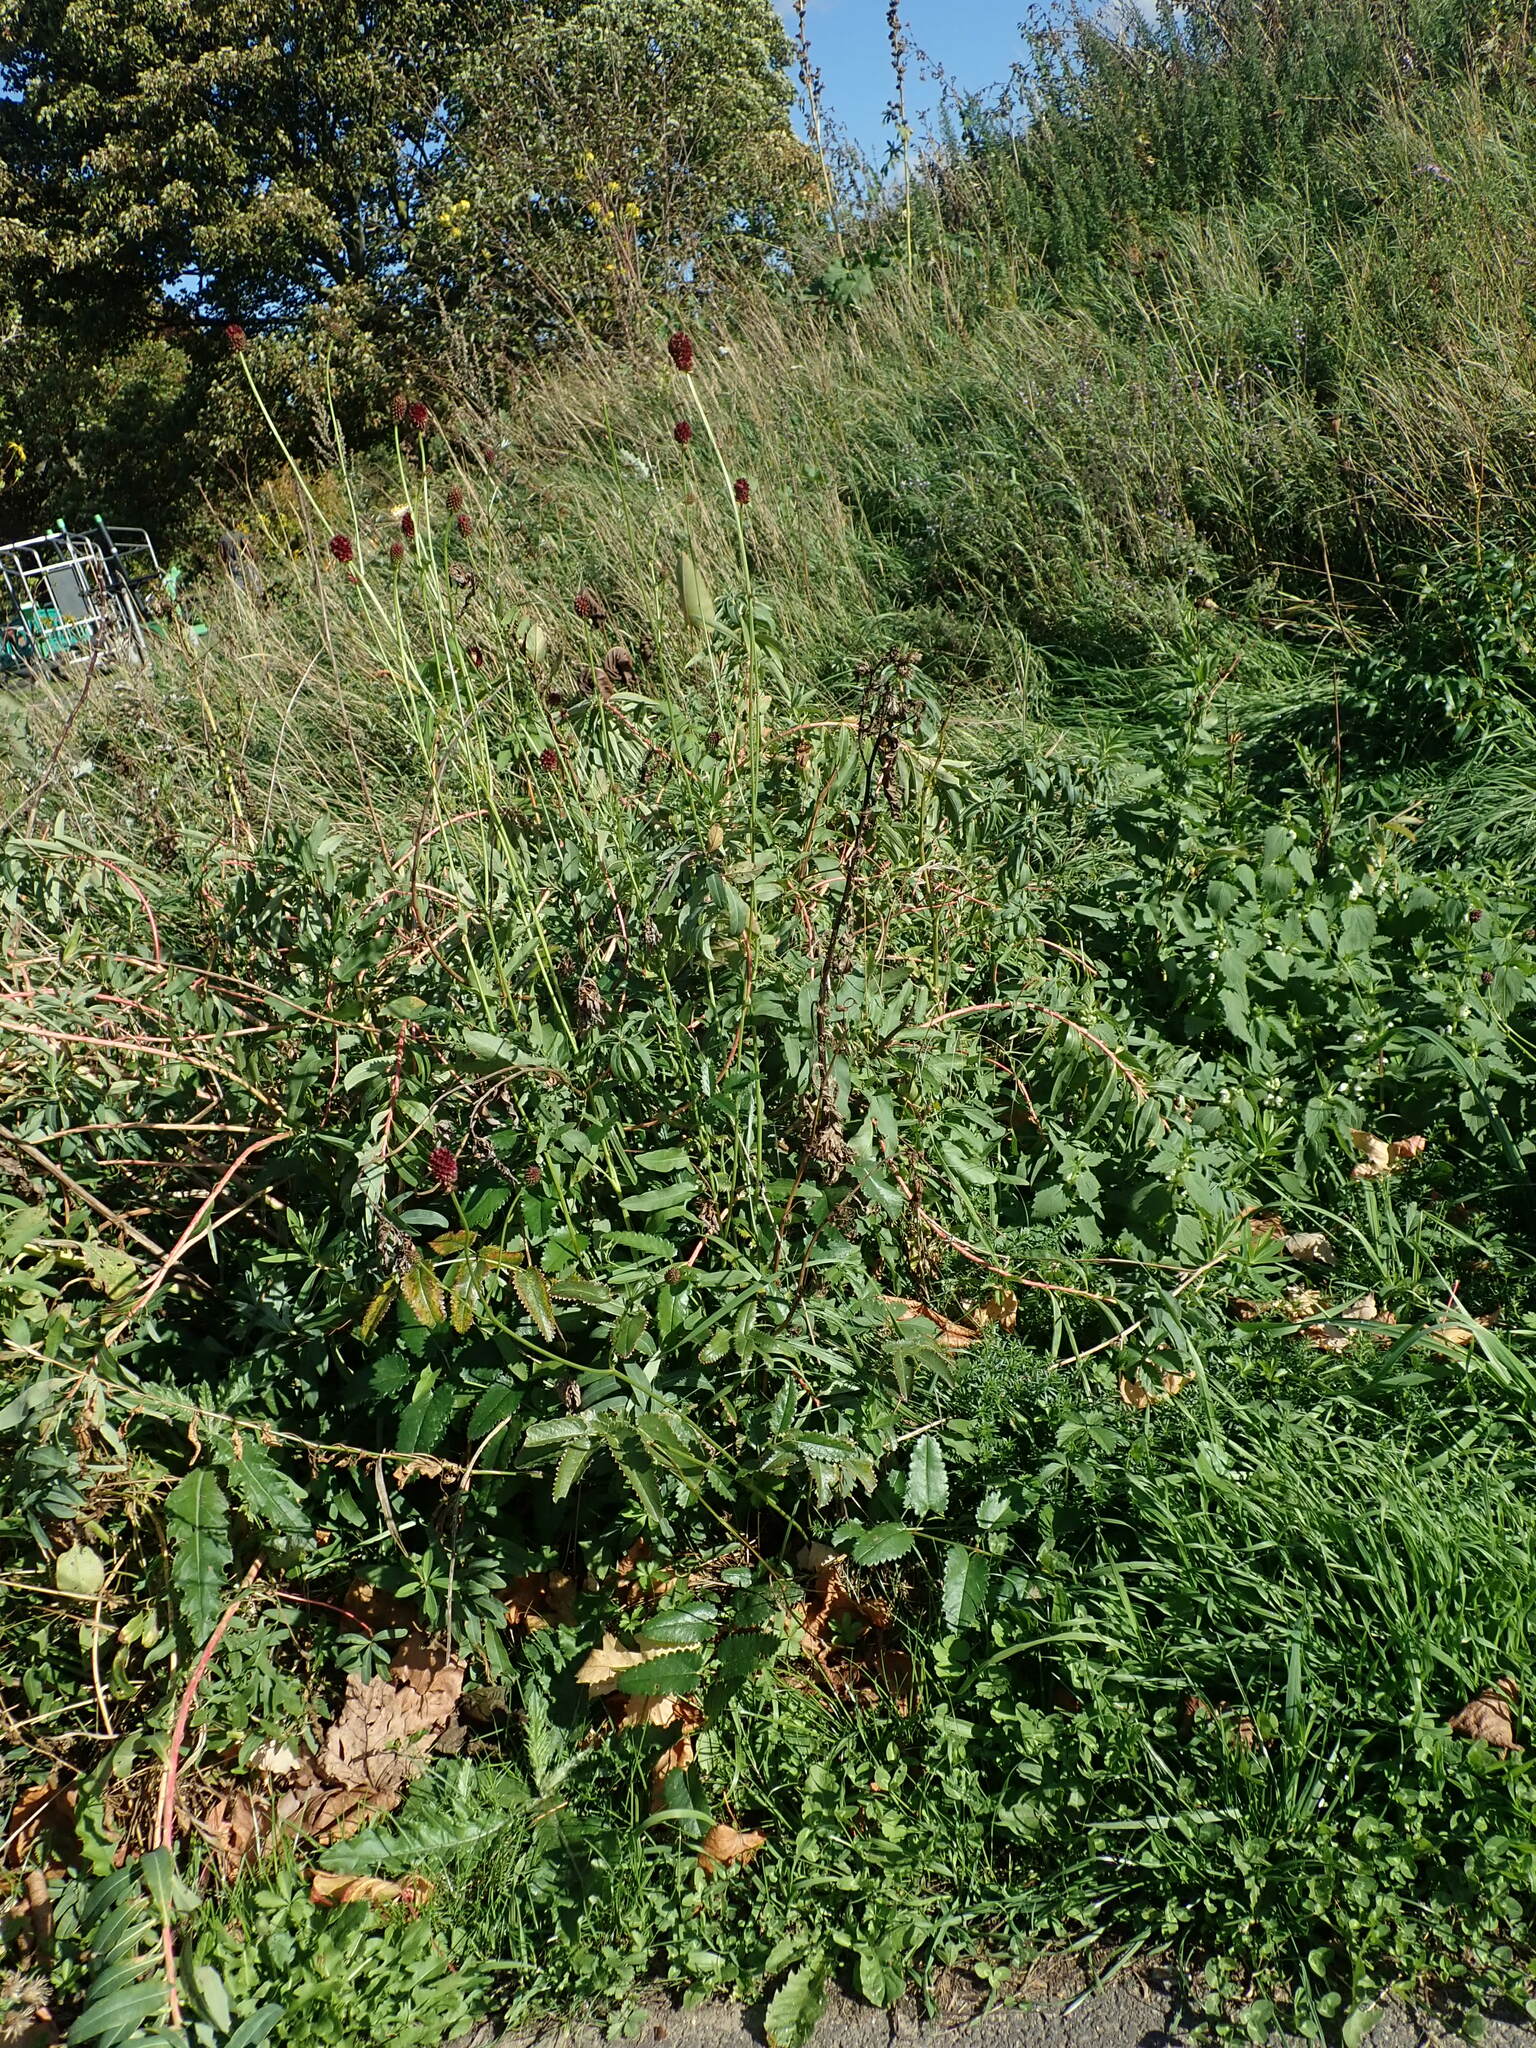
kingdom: Plantae
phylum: Tracheophyta
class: Magnoliopsida
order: Rosales
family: Rosaceae
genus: Sanguisorba
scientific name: Sanguisorba officinalis
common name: Great burnet
